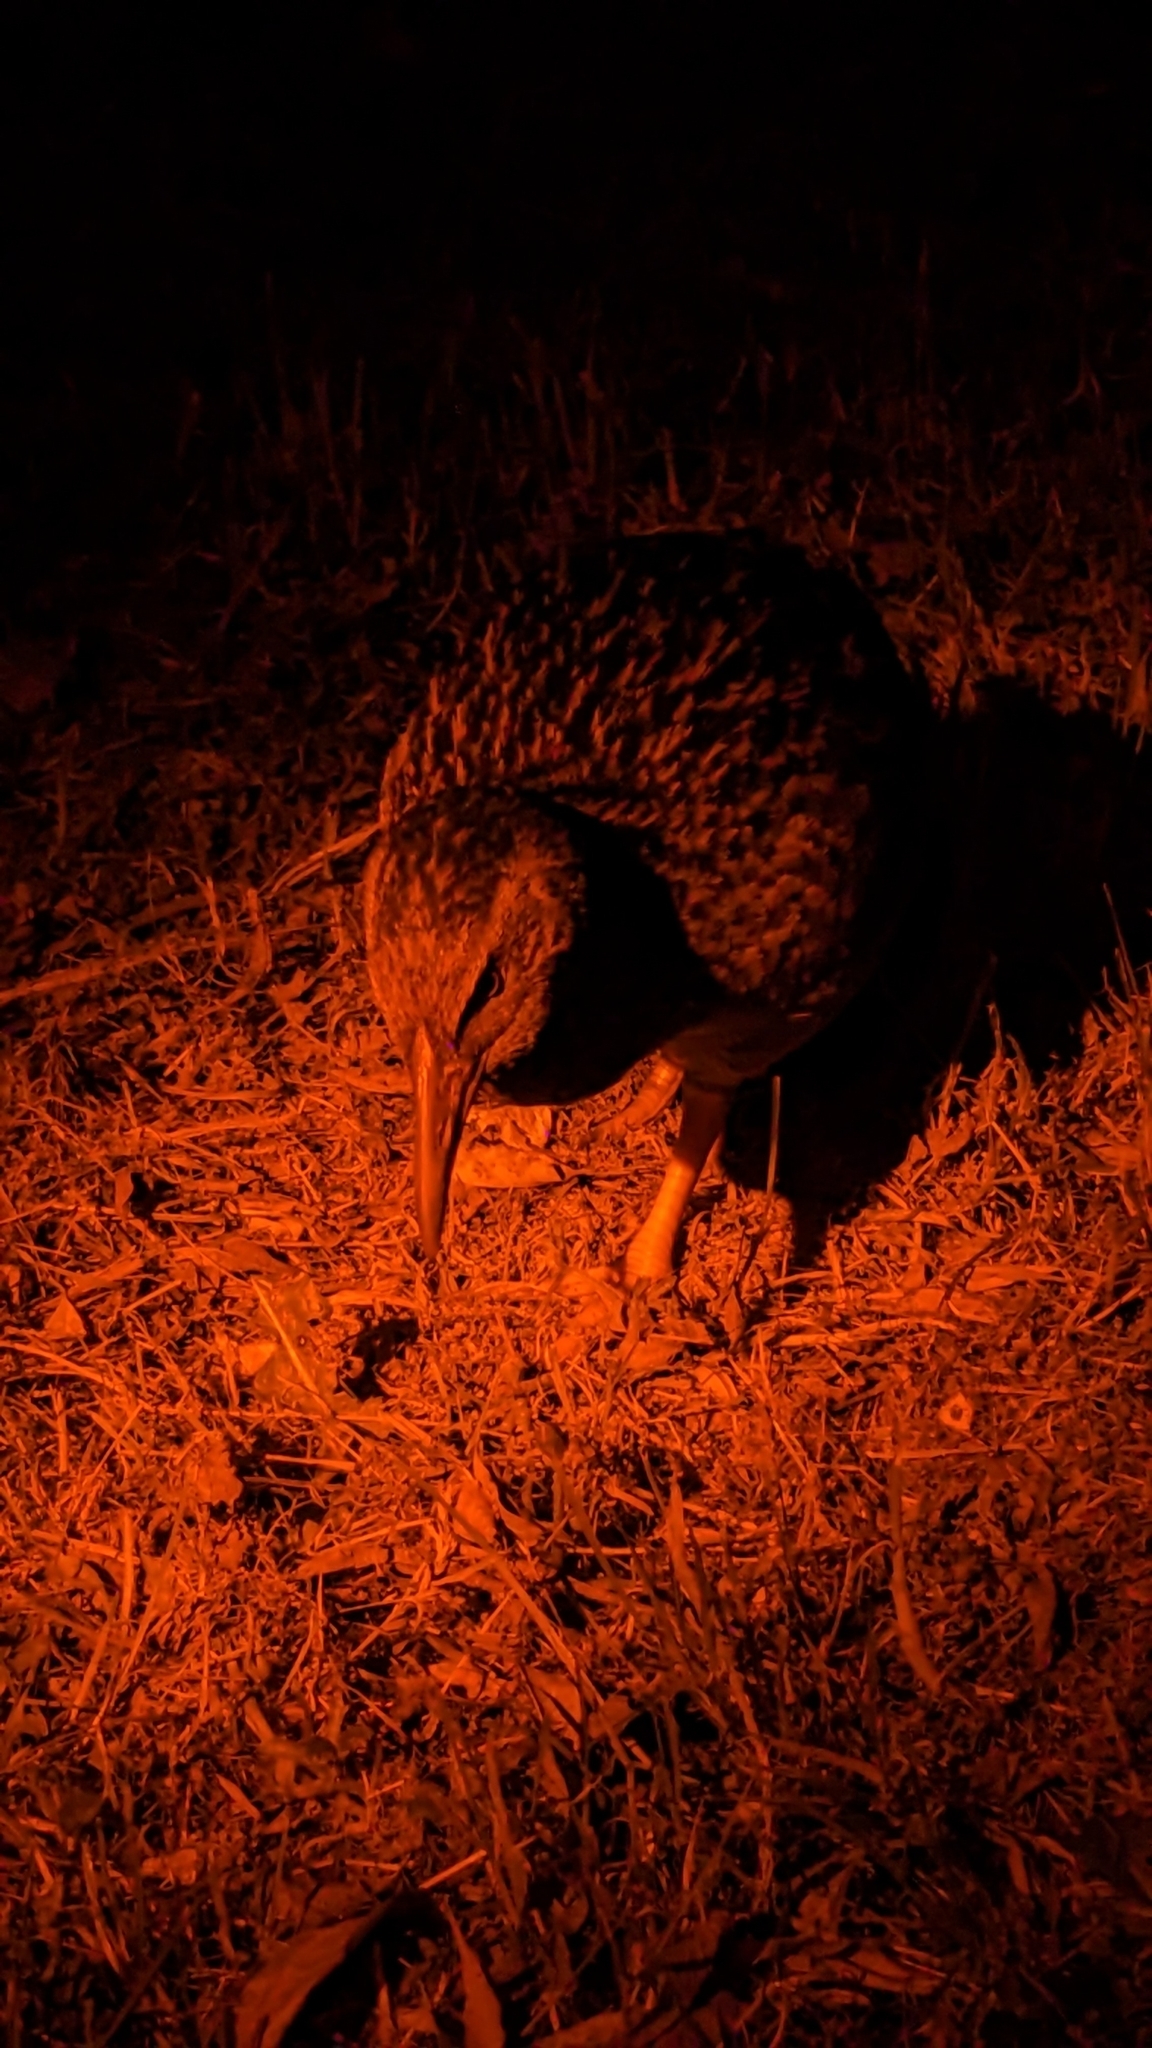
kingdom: Animalia
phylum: Chordata
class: Aves
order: Gruiformes
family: Rallidae
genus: Gallirallus
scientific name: Gallirallus australis
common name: Weka
